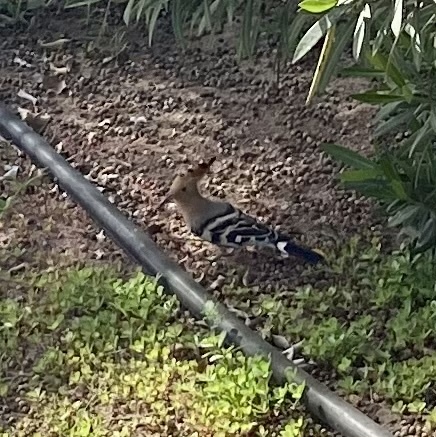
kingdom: Animalia
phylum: Chordata
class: Aves
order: Bucerotiformes
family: Upupidae
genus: Upupa
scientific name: Upupa epops
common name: Eurasian hoopoe
